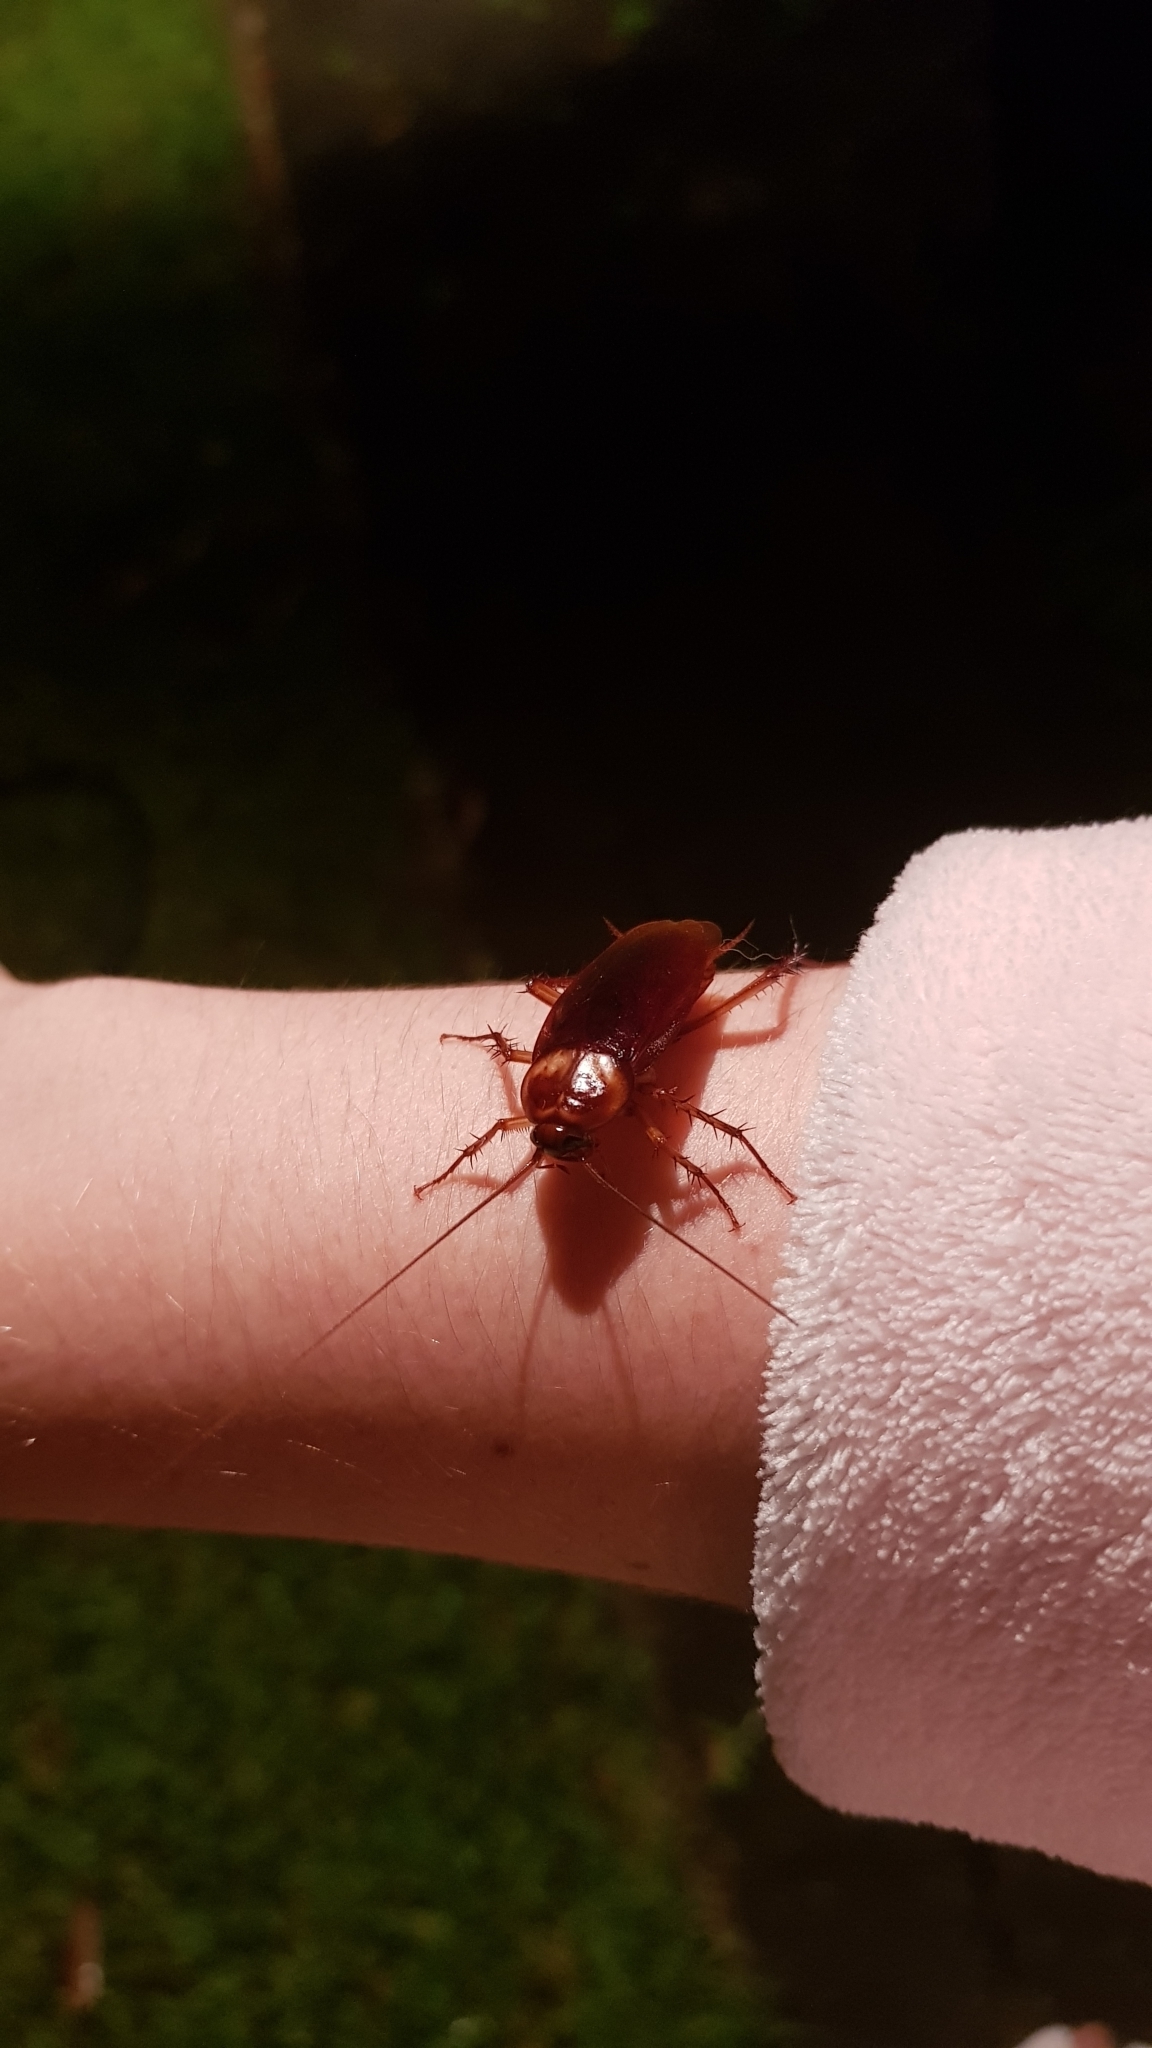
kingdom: Animalia
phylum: Arthropoda
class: Insecta
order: Blattodea
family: Blattidae
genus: Periplaneta
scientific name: Periplaneta americana
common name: American cockroach
